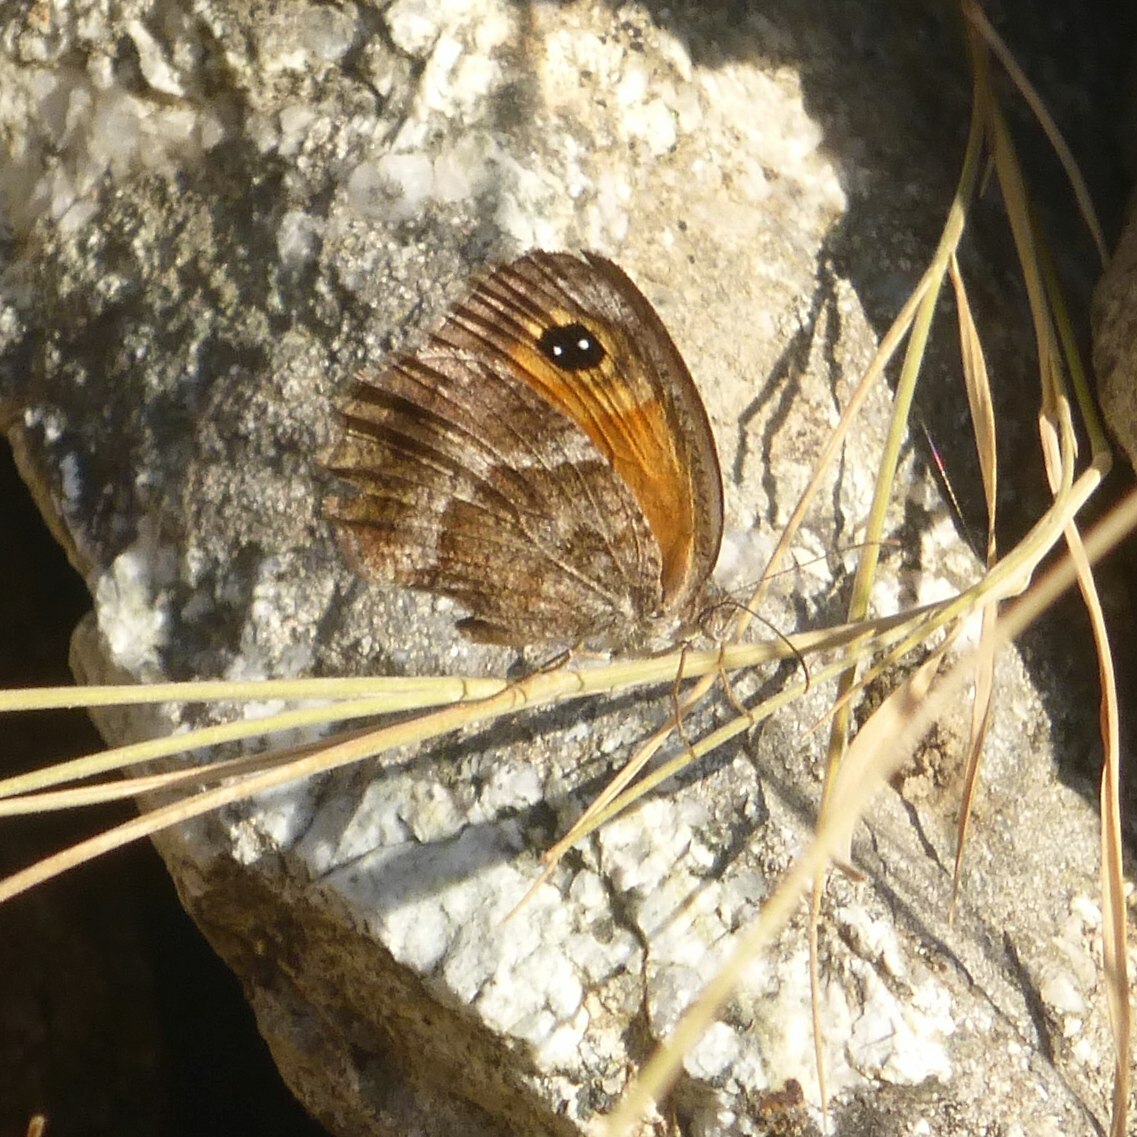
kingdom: Animalia
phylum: Arthropoda
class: Insecta
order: Lepidoptera
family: Nymphalidae
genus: Pyronia
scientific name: Pyronia cecilia
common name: Southern gatekeeper
